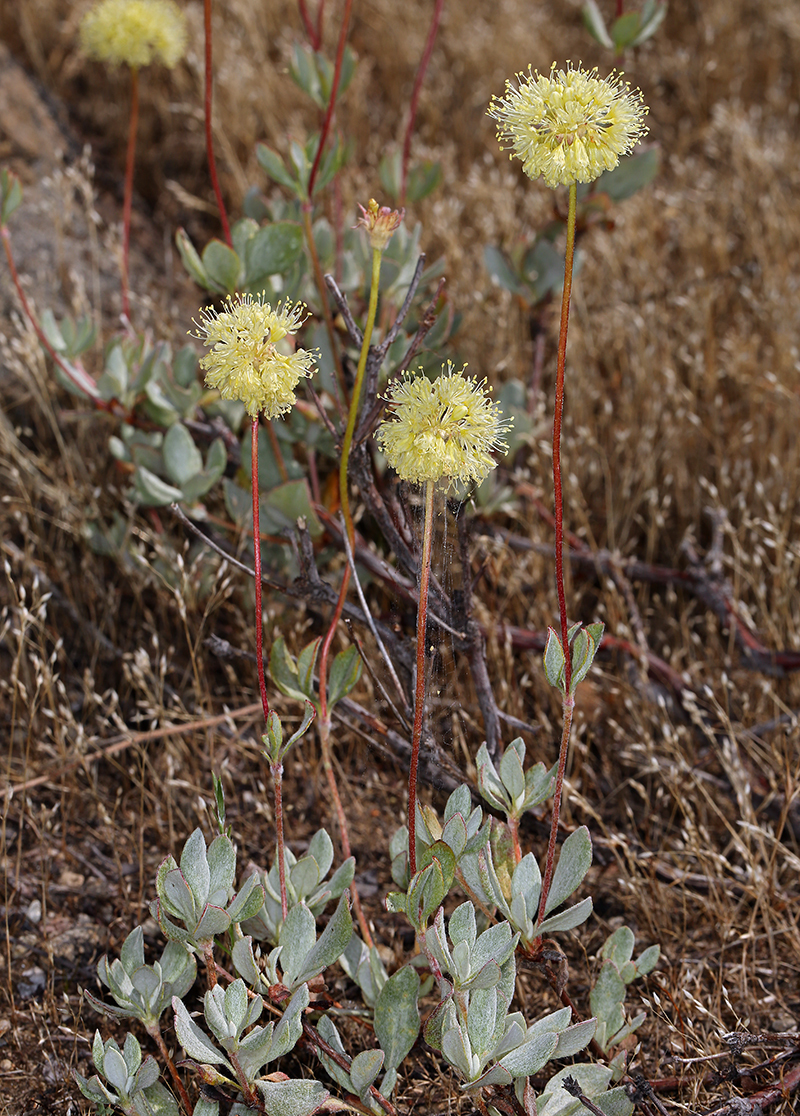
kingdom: Plantae
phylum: Tracheophyta
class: Magnoliopsida
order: Caryophyllales
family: Polygonaceae
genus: Eriogonum
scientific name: Eriogonum prattenianum
